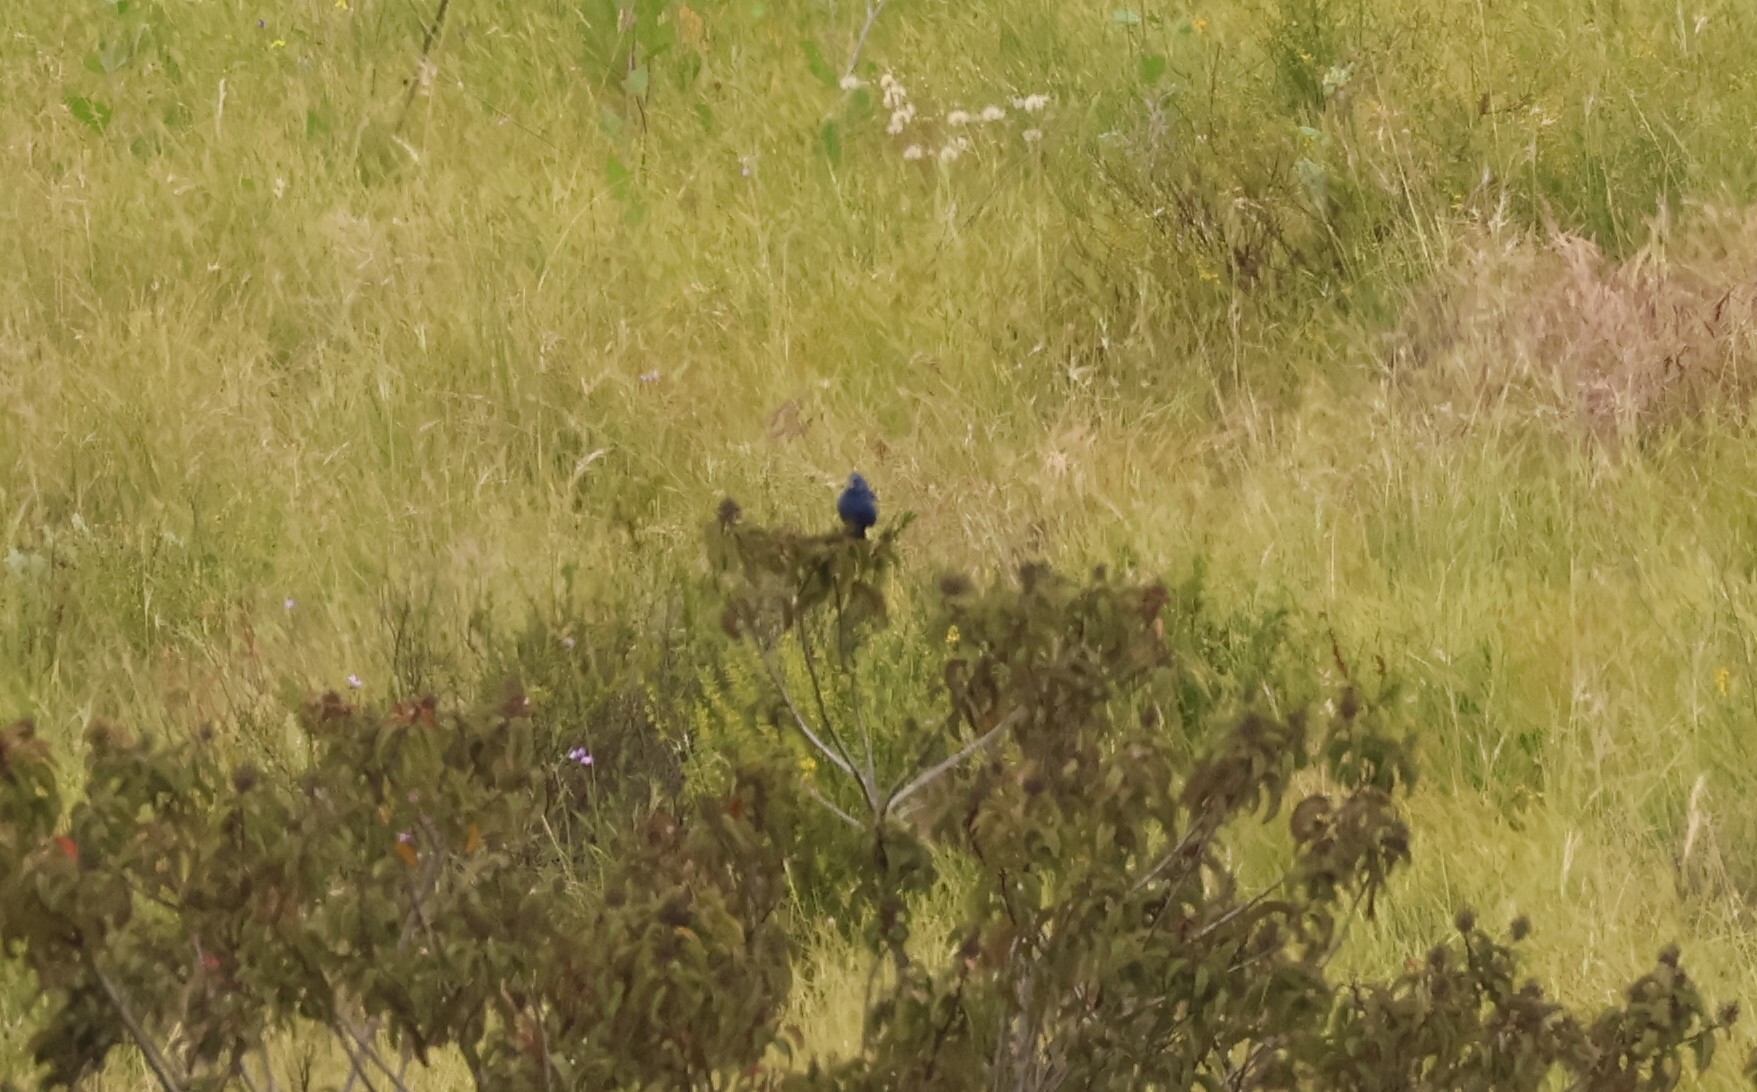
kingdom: Animalia
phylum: Chordata
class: Aves
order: Passeriformes
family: Cardinalidae
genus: Passerina
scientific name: Passerina caerulea
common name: Blue grosbeak
